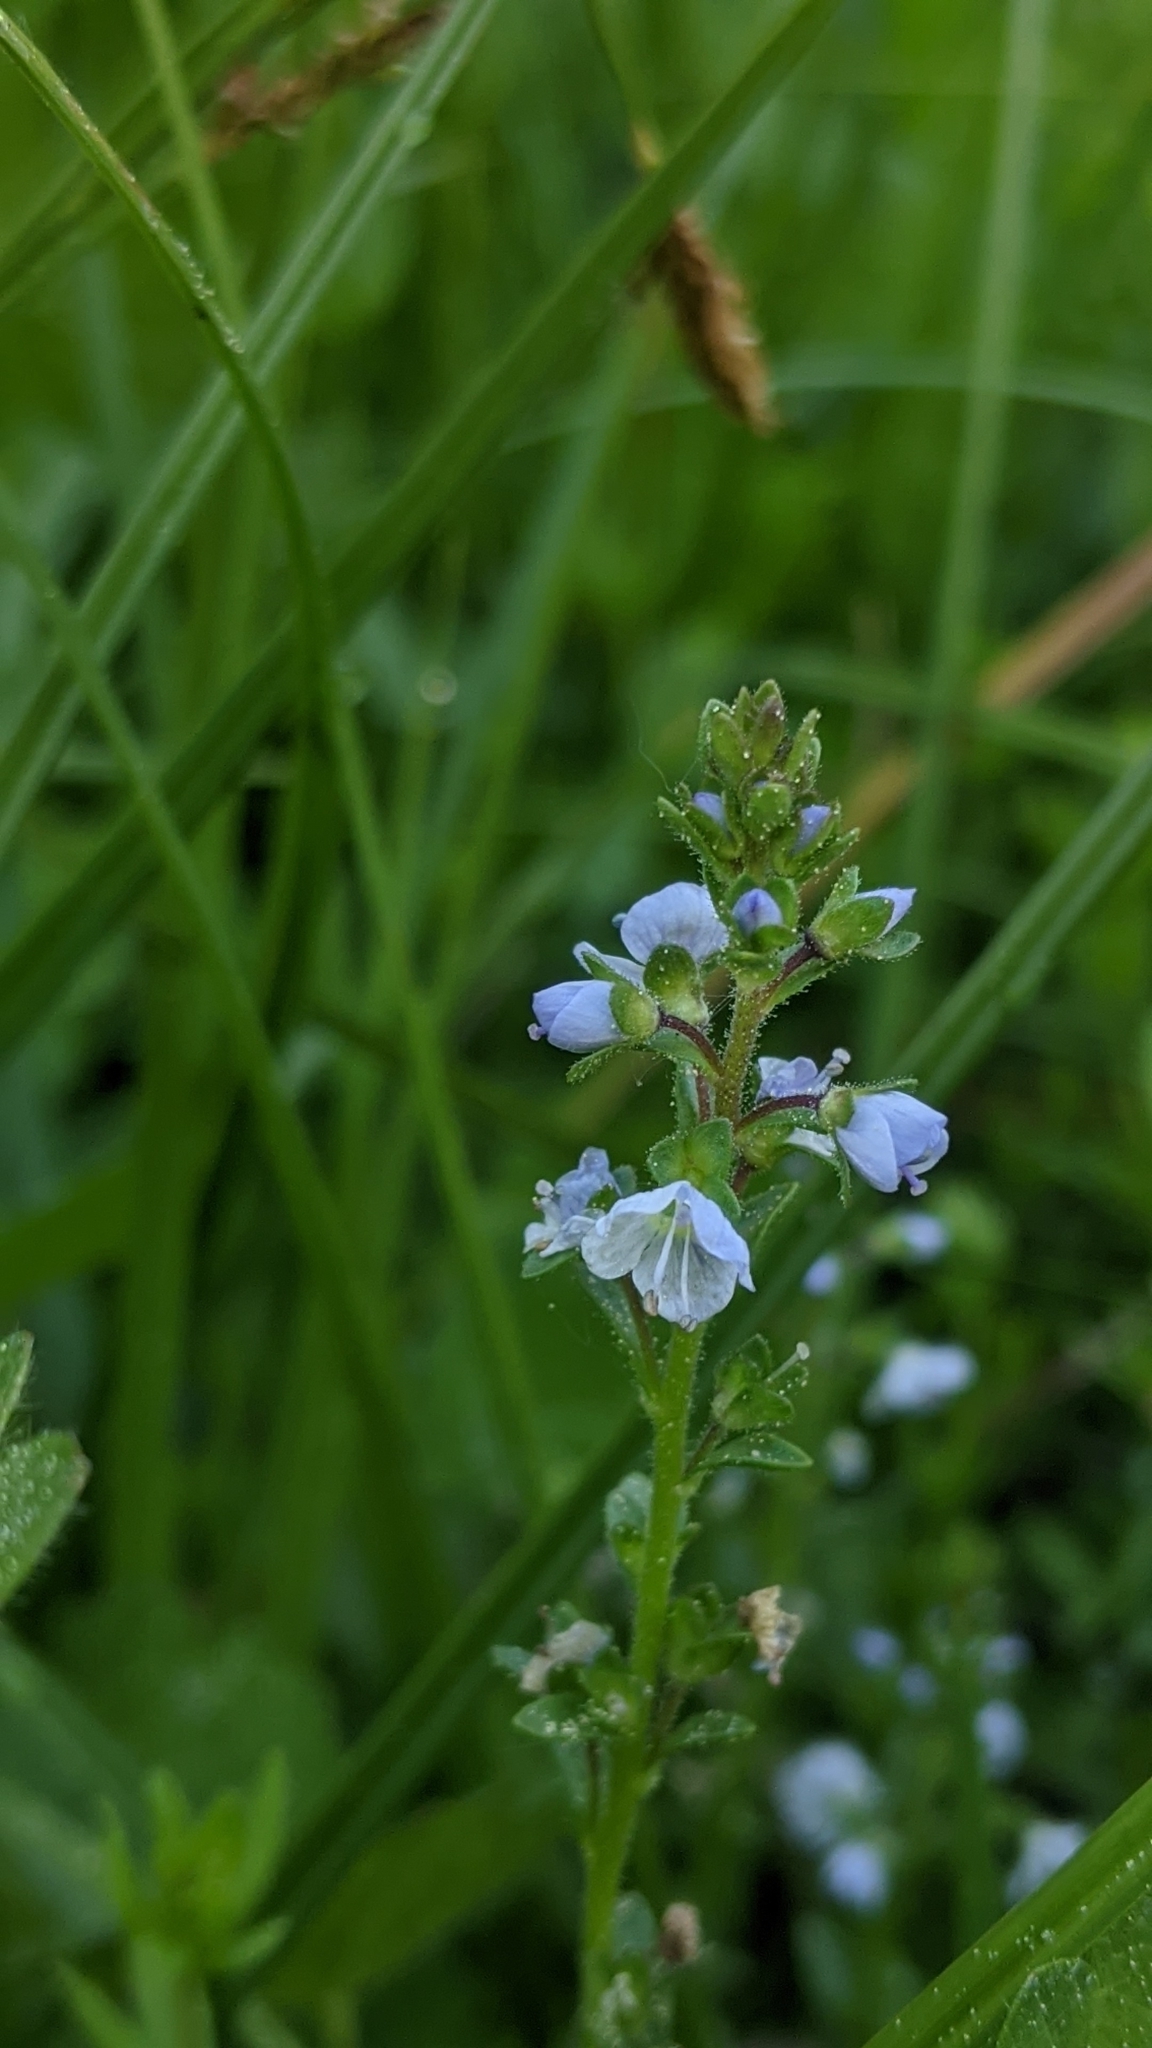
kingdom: Plantae
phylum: Tracheophyta
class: Magnoliopsida
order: Lamiales
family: Plantaginaceae
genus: Veronica
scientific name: Veronica serpyllifolia
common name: Thyme-leaved speedwell
